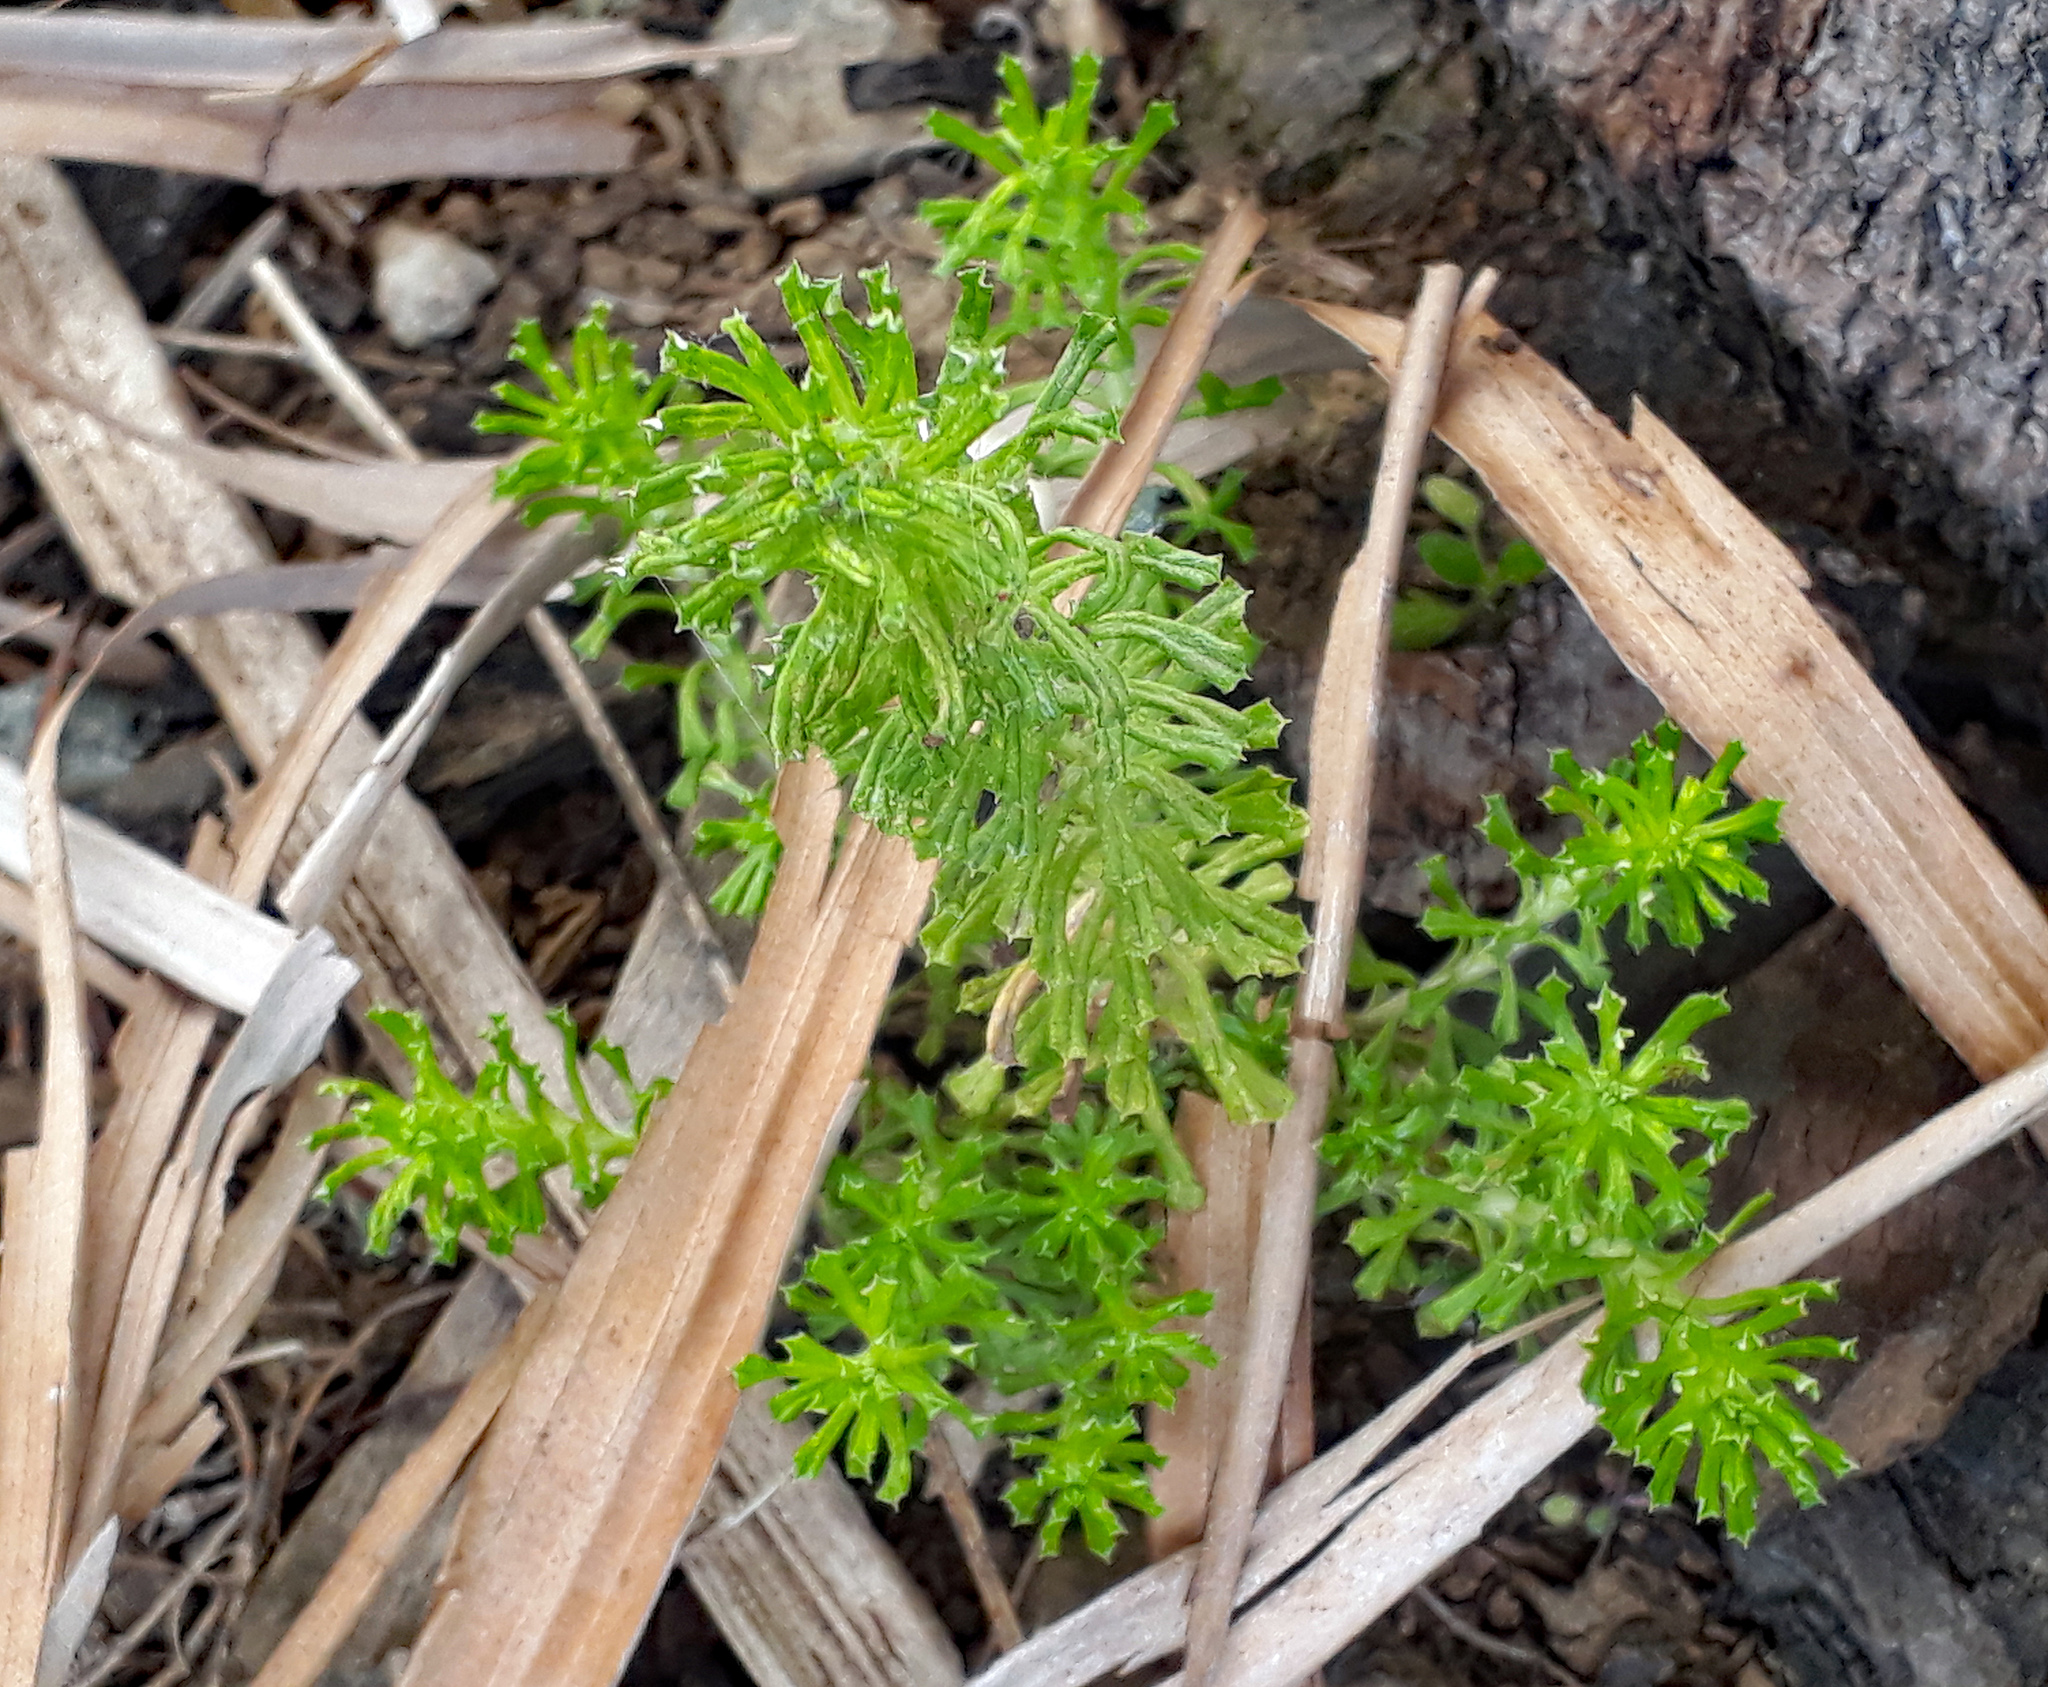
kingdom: Plantae
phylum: Tracheophyta
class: Magnoliopsida
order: Asterales
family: Asteraceae
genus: Facelis
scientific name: Facelis retusa
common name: Annual trampweed
